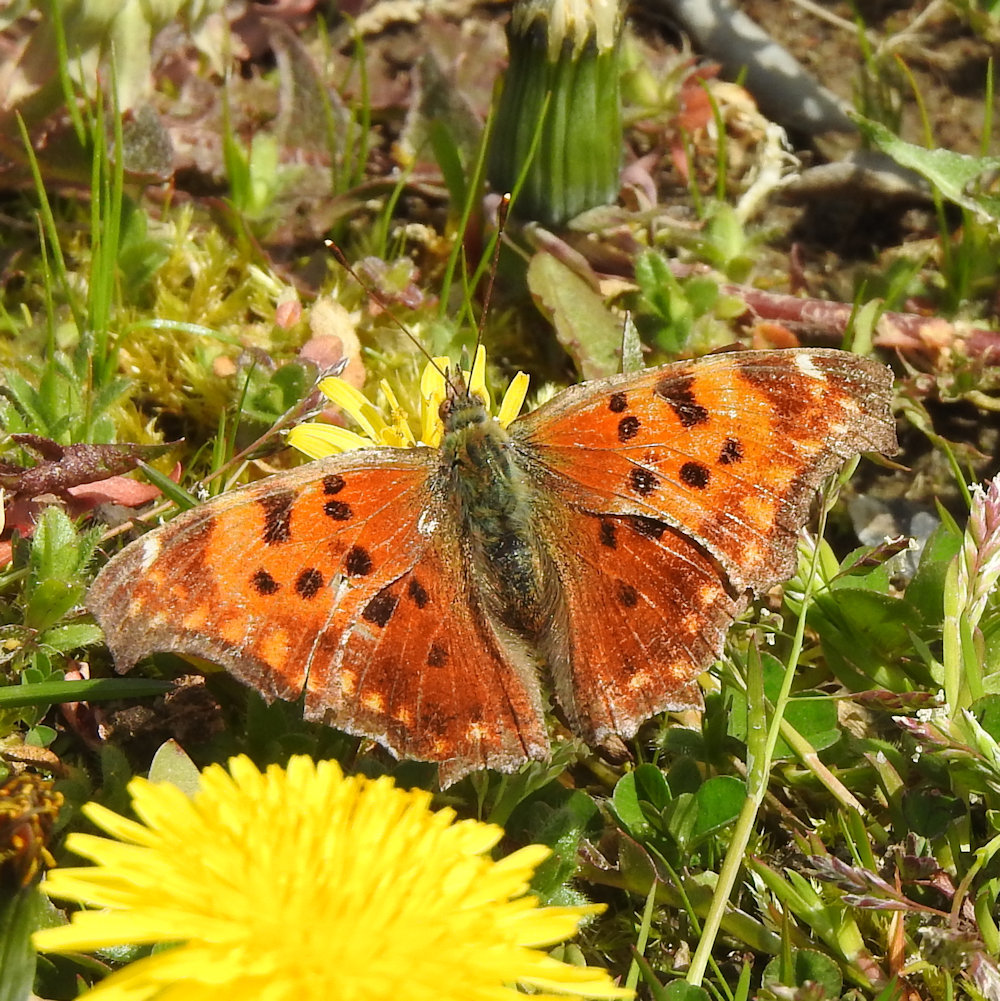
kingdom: Animalia
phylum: Arthropoda
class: Insecta
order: Lepidoptera
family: Nymphalidae
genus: Polygonia
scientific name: Polygonia comma
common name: Eastern comma
